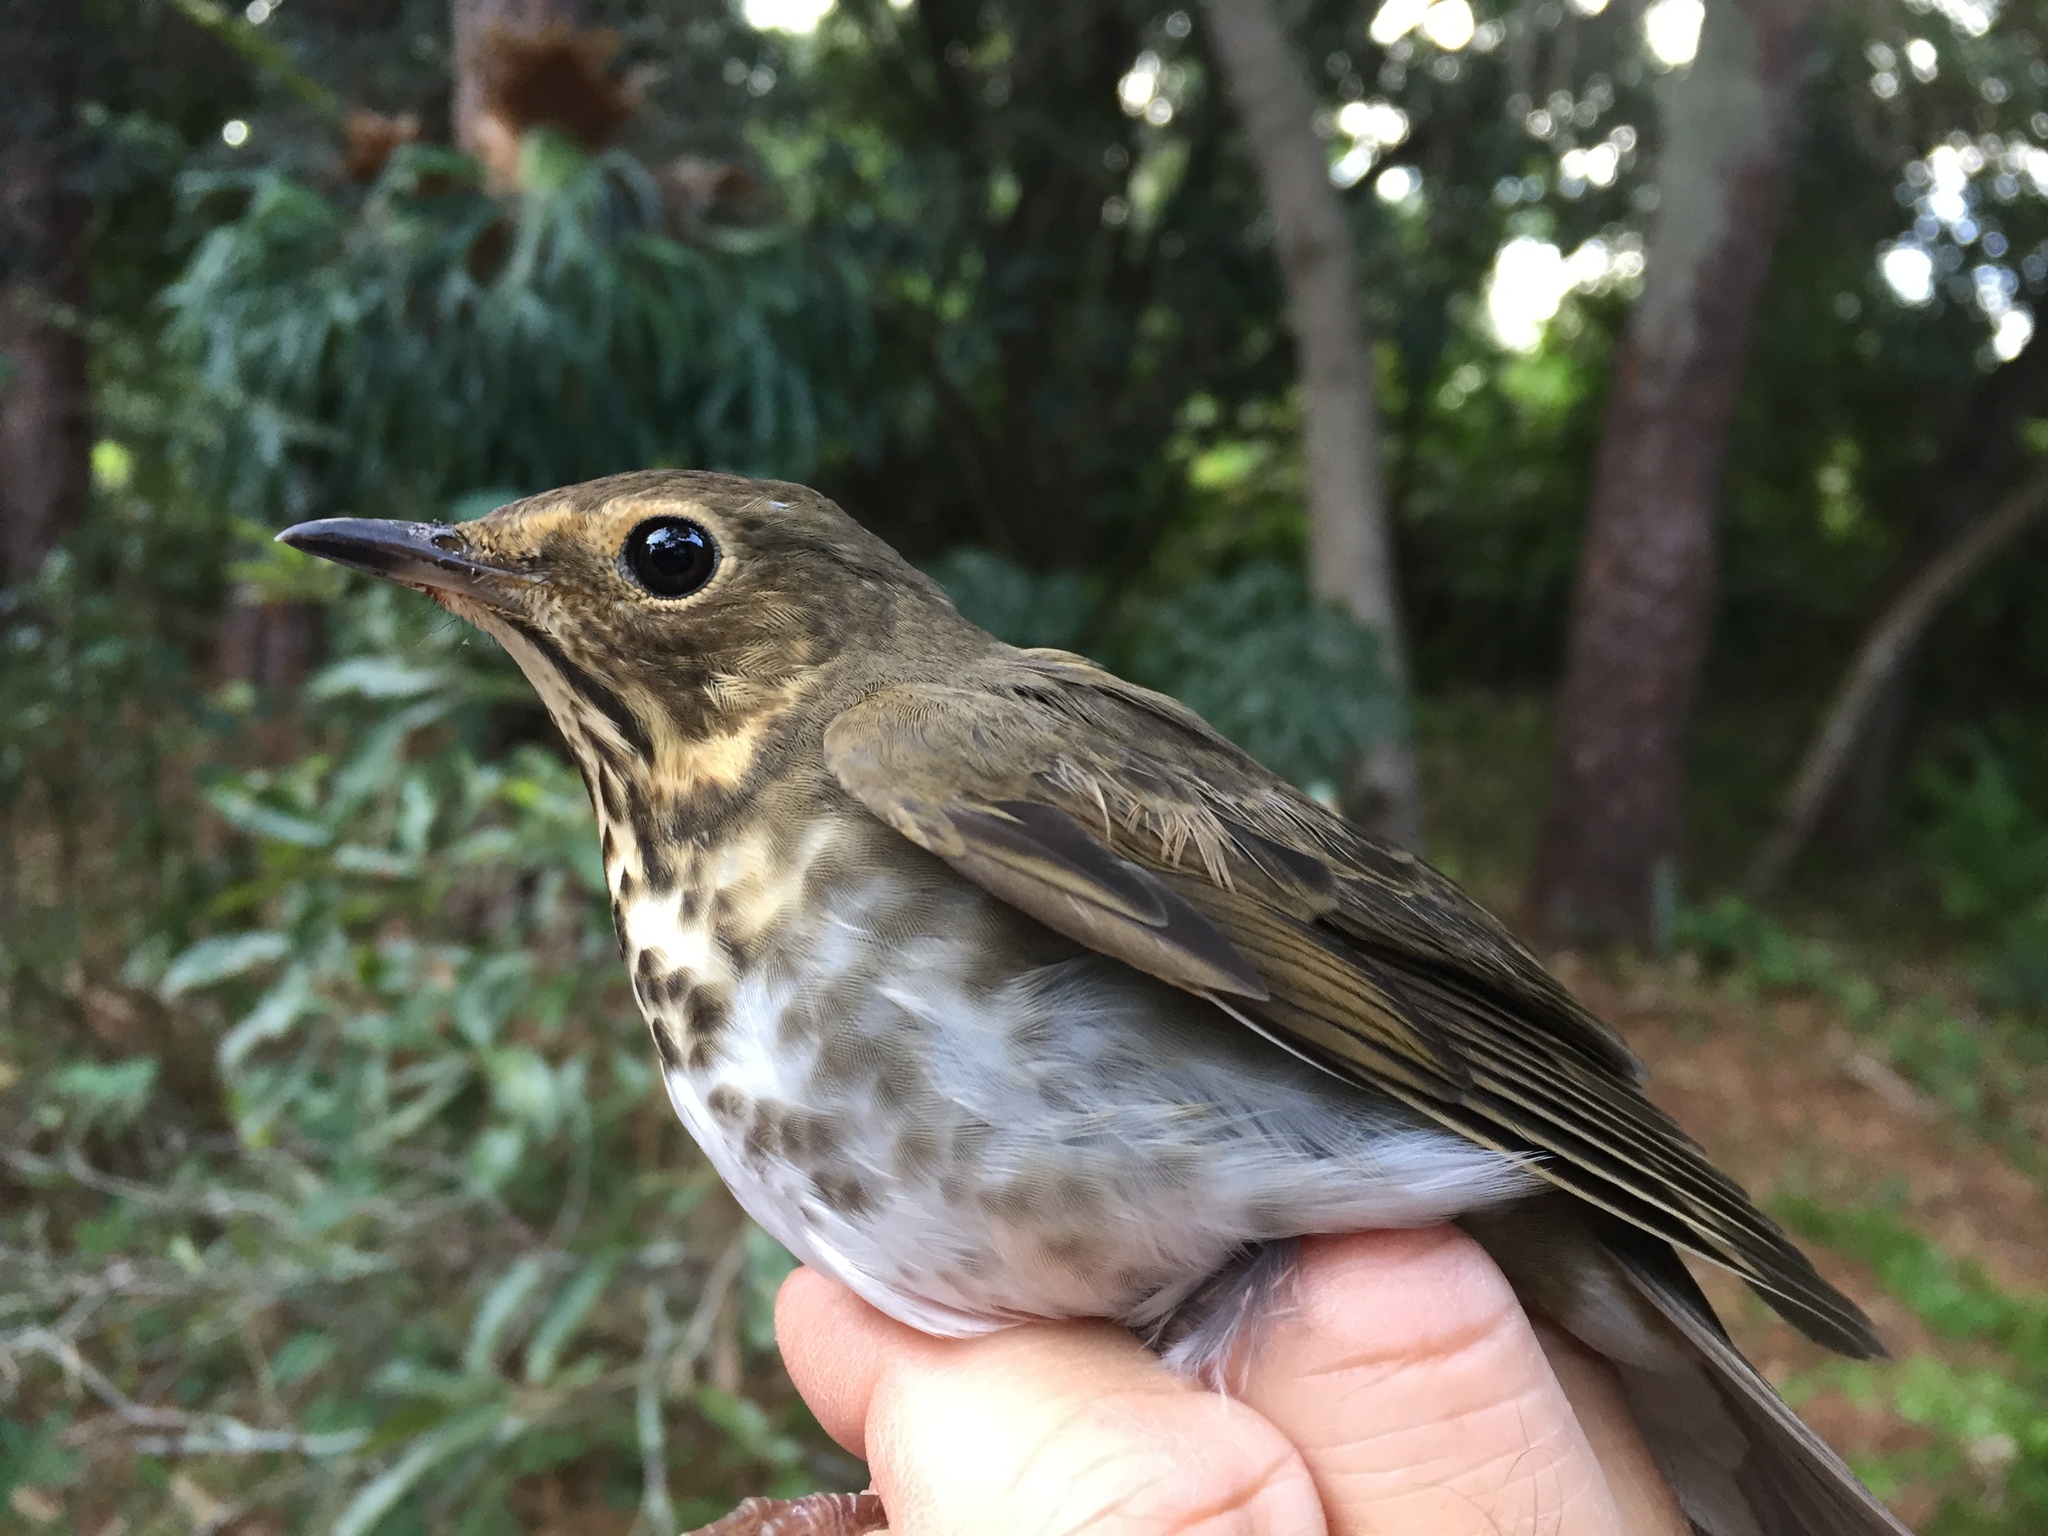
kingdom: Animalia
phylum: Chordata
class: Aves
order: Passeriformes
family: Turdidae
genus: Catharus
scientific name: Catharus ustulatus
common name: Swainson's thrush
